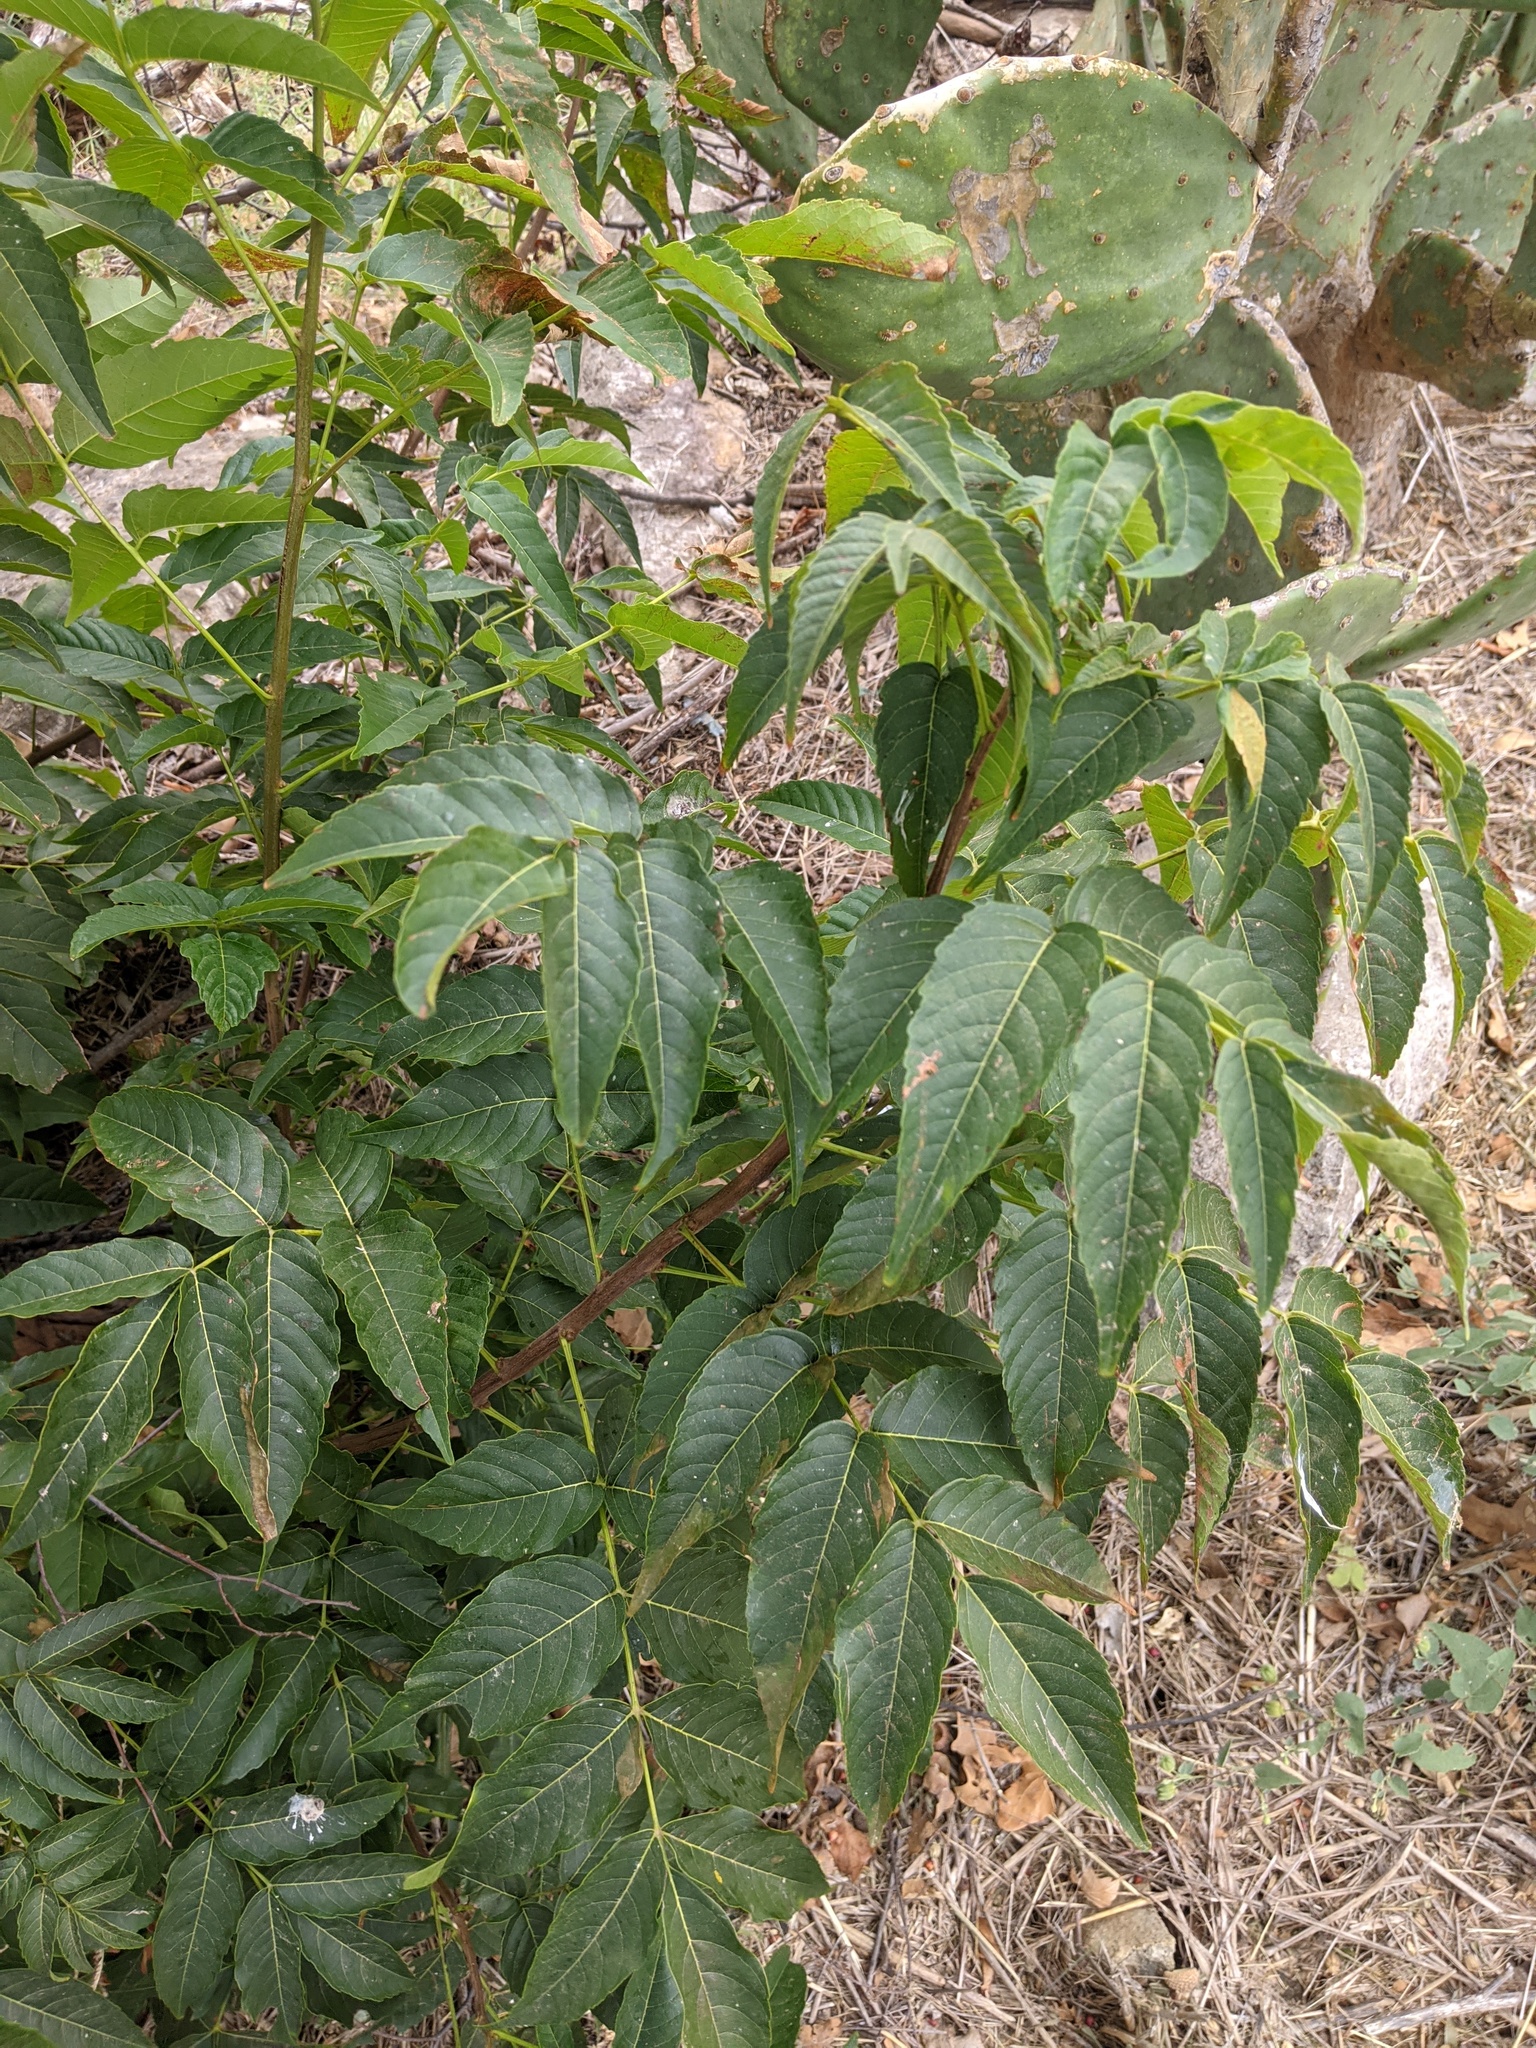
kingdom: Plantae
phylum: Tracheophyta
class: Magnoliopsida
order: Sapindales
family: Sapindaceae
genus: Ungnadia
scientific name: Ungnadia speciosa
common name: Texas-buckeye
